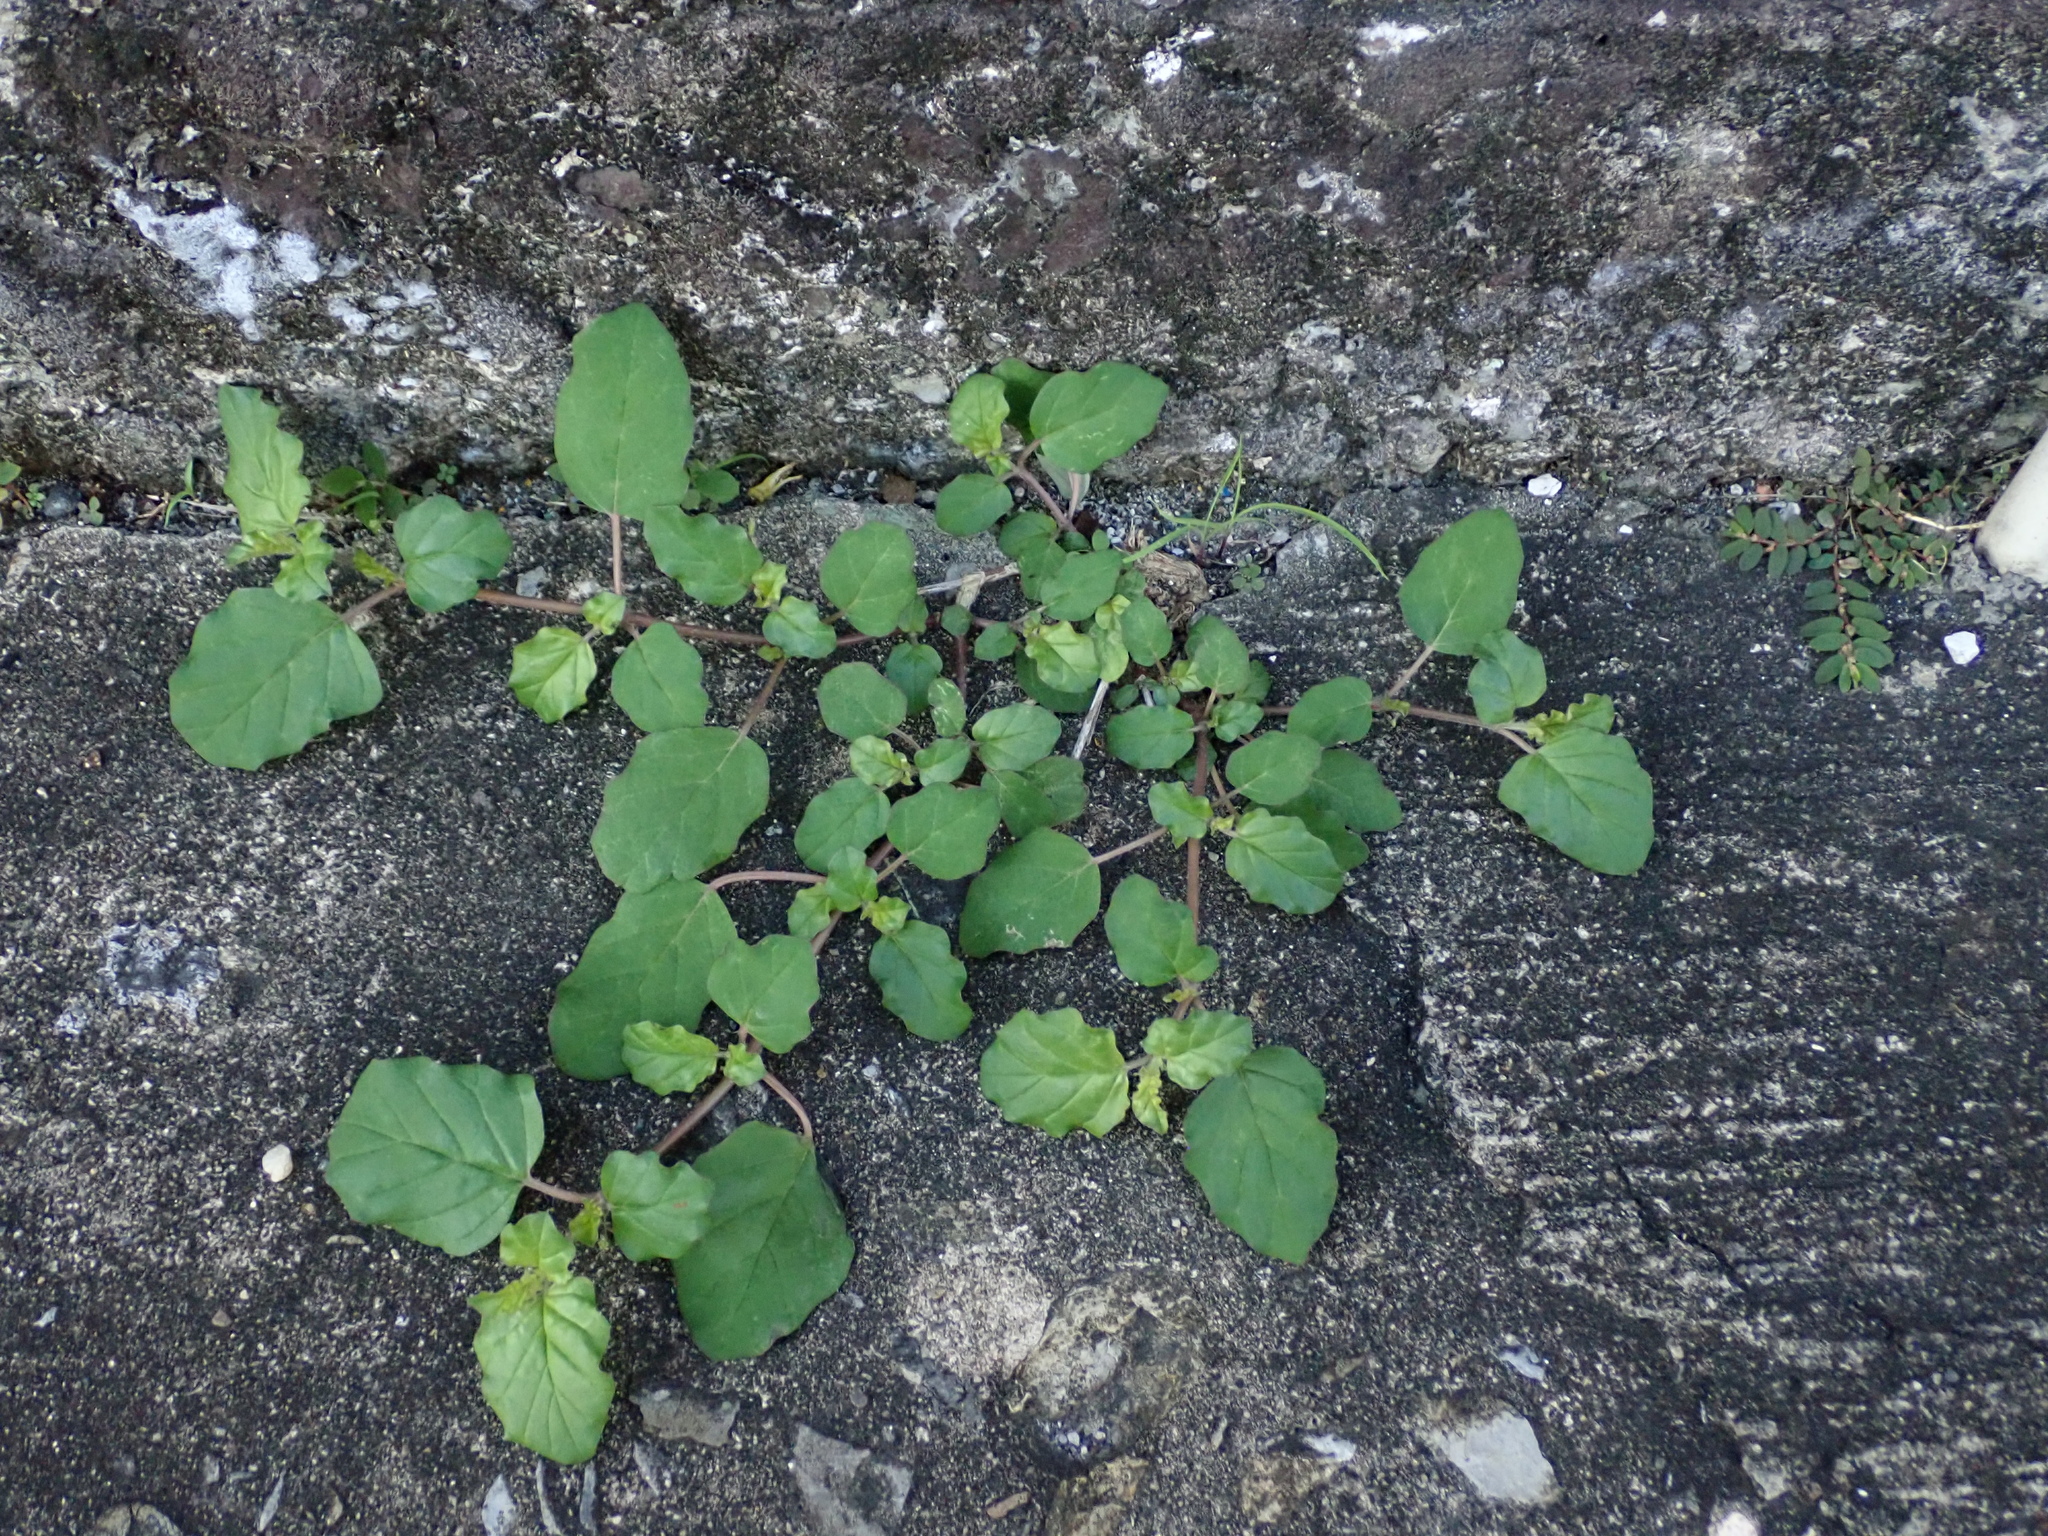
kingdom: Plantae
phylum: Tracheophyta
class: Magnoliopsida
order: Caryophyllales
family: Nyctaginaceae
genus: Boerhavia
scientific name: Boerhavia coccinea
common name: Scarlet spiderling
